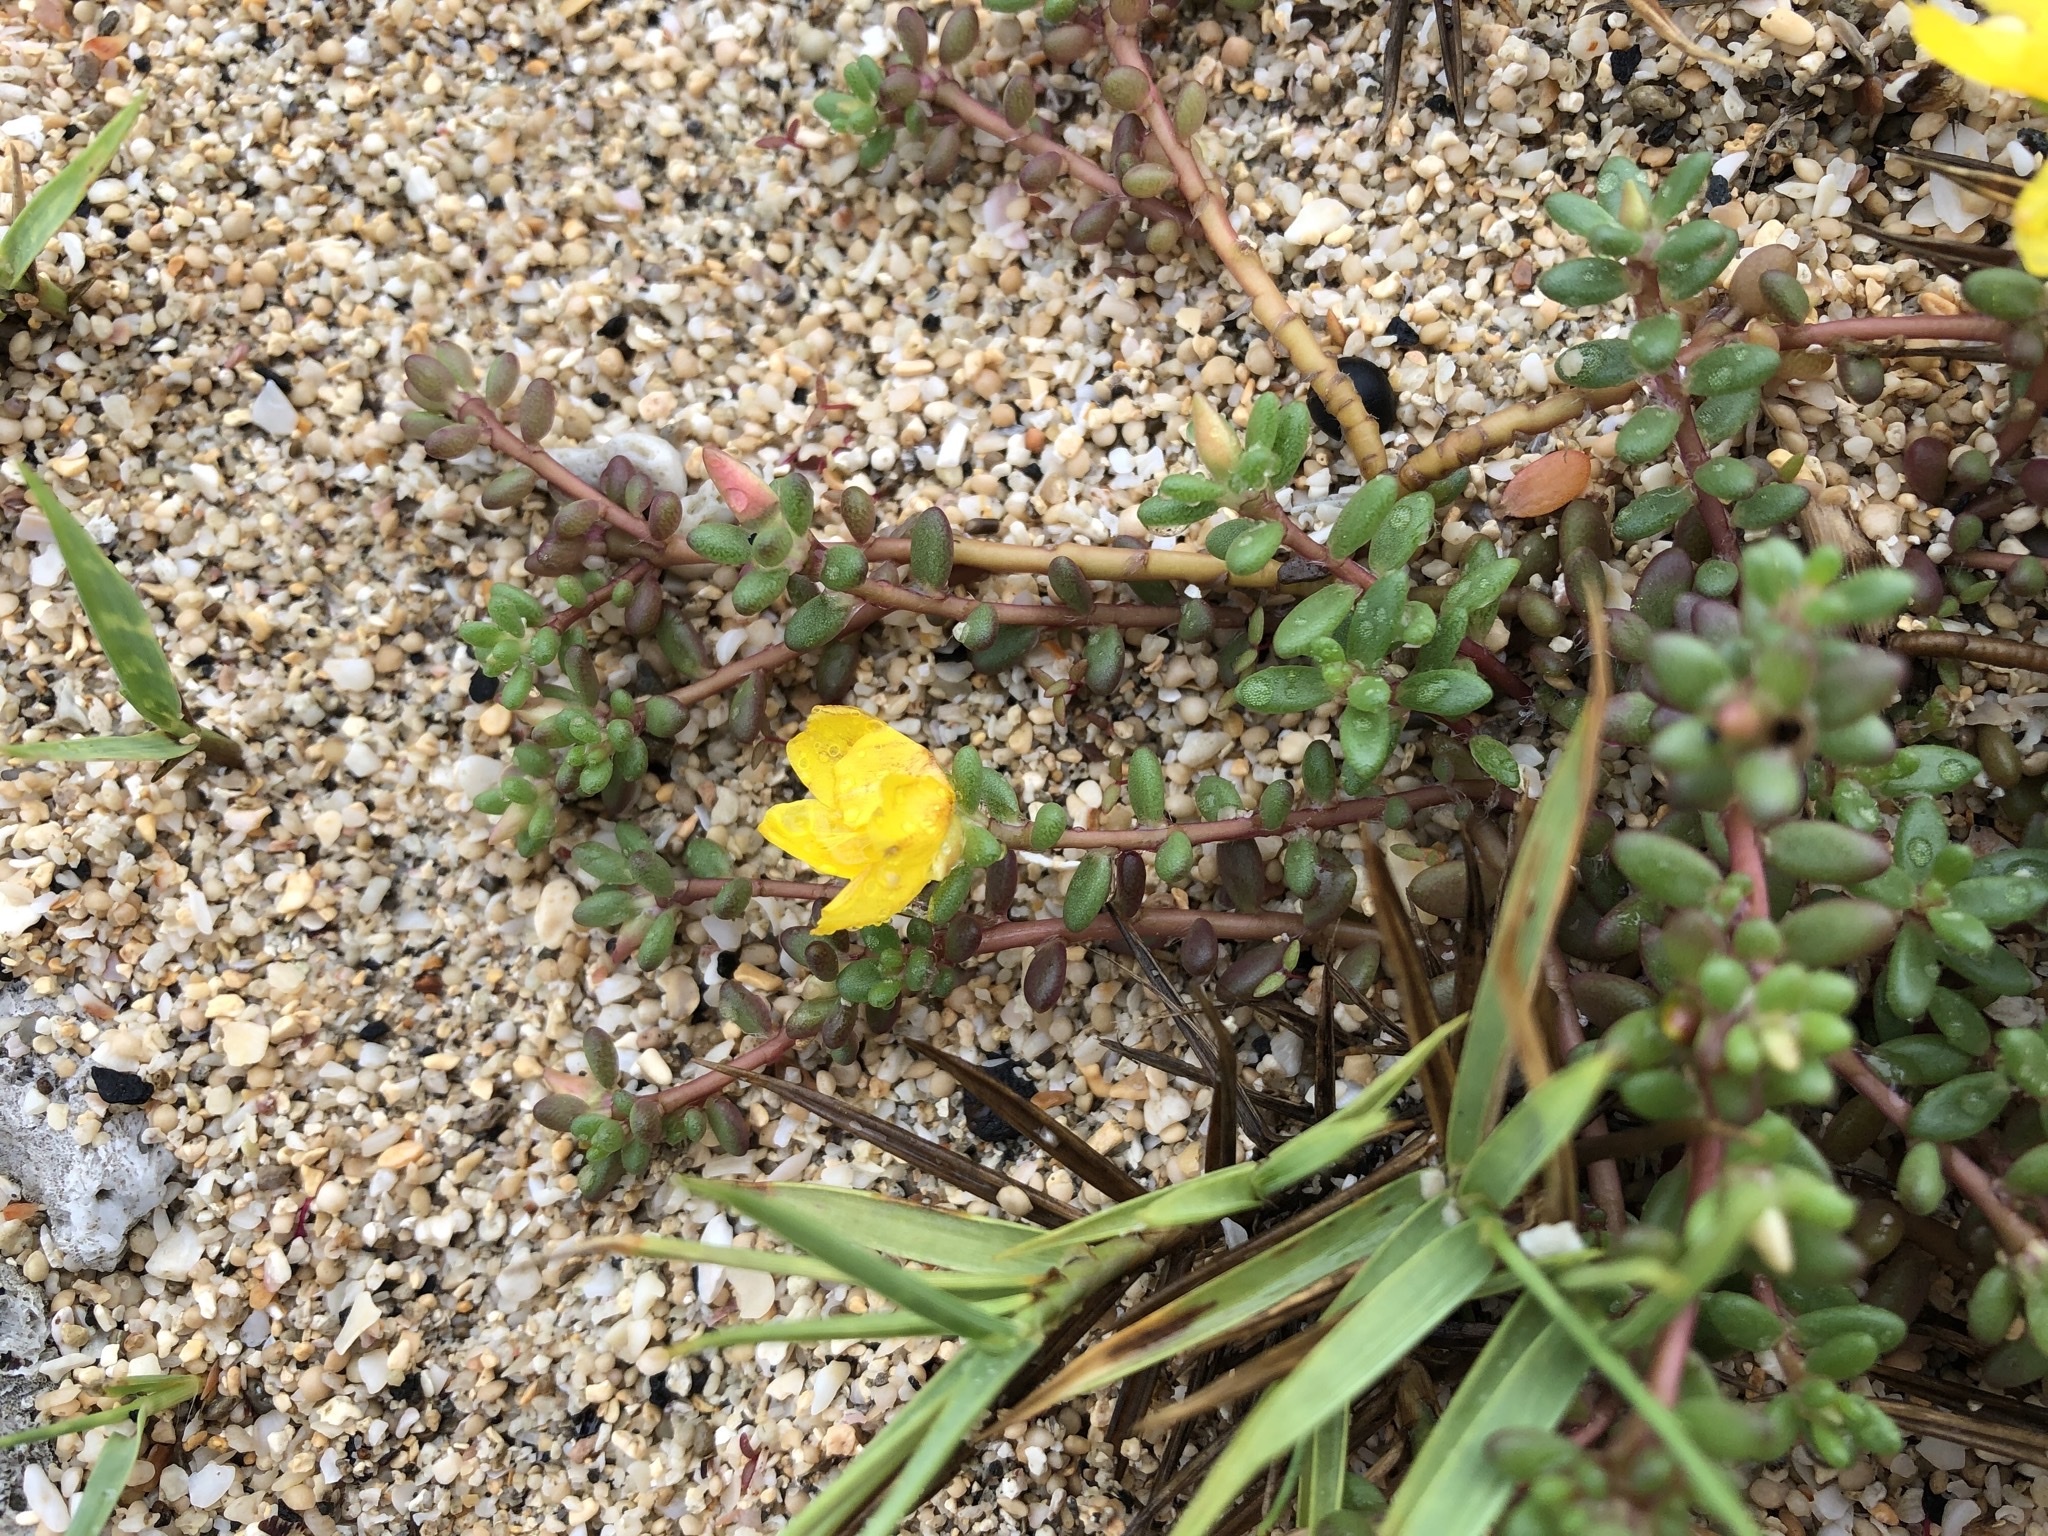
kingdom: Plantae
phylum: Tracheophyta
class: Magnoliopsida
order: Caryophyllales
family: Portulacaceae
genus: Portulaca
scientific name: Portulaca psammotropha
